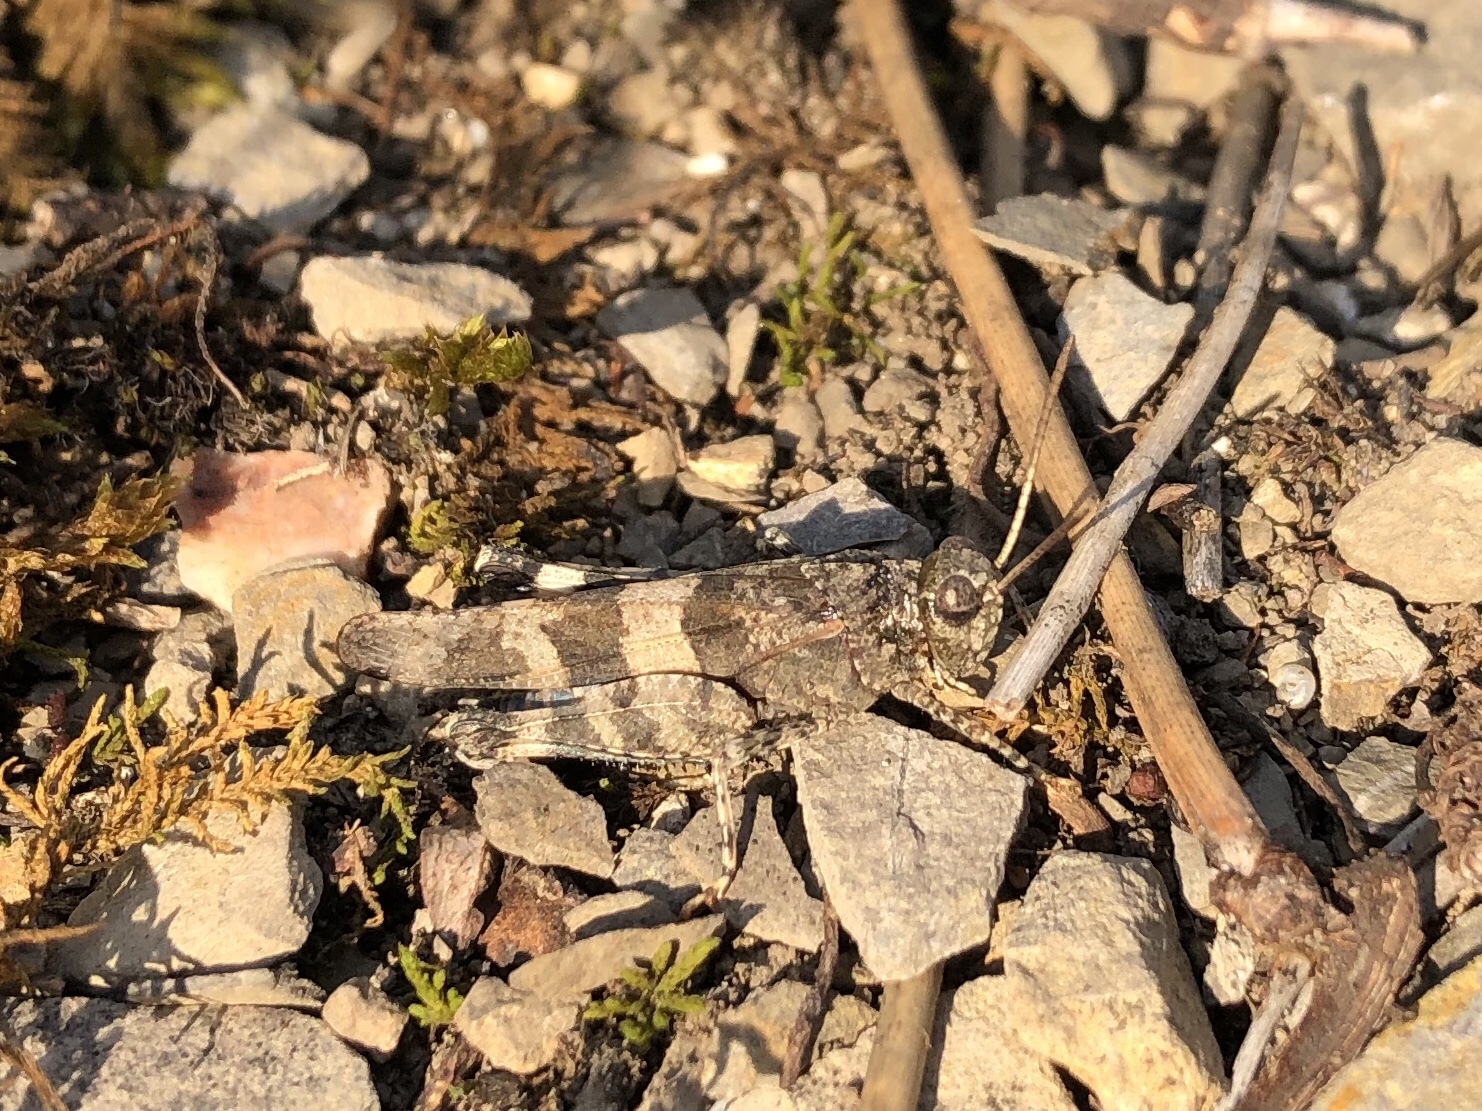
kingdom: Animalia
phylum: Arthropoda
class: Insecta
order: Orthoptera
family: Acrididae
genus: Oedipoda
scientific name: Oedipoda caerulescens
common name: Blue-winged grasshopper
